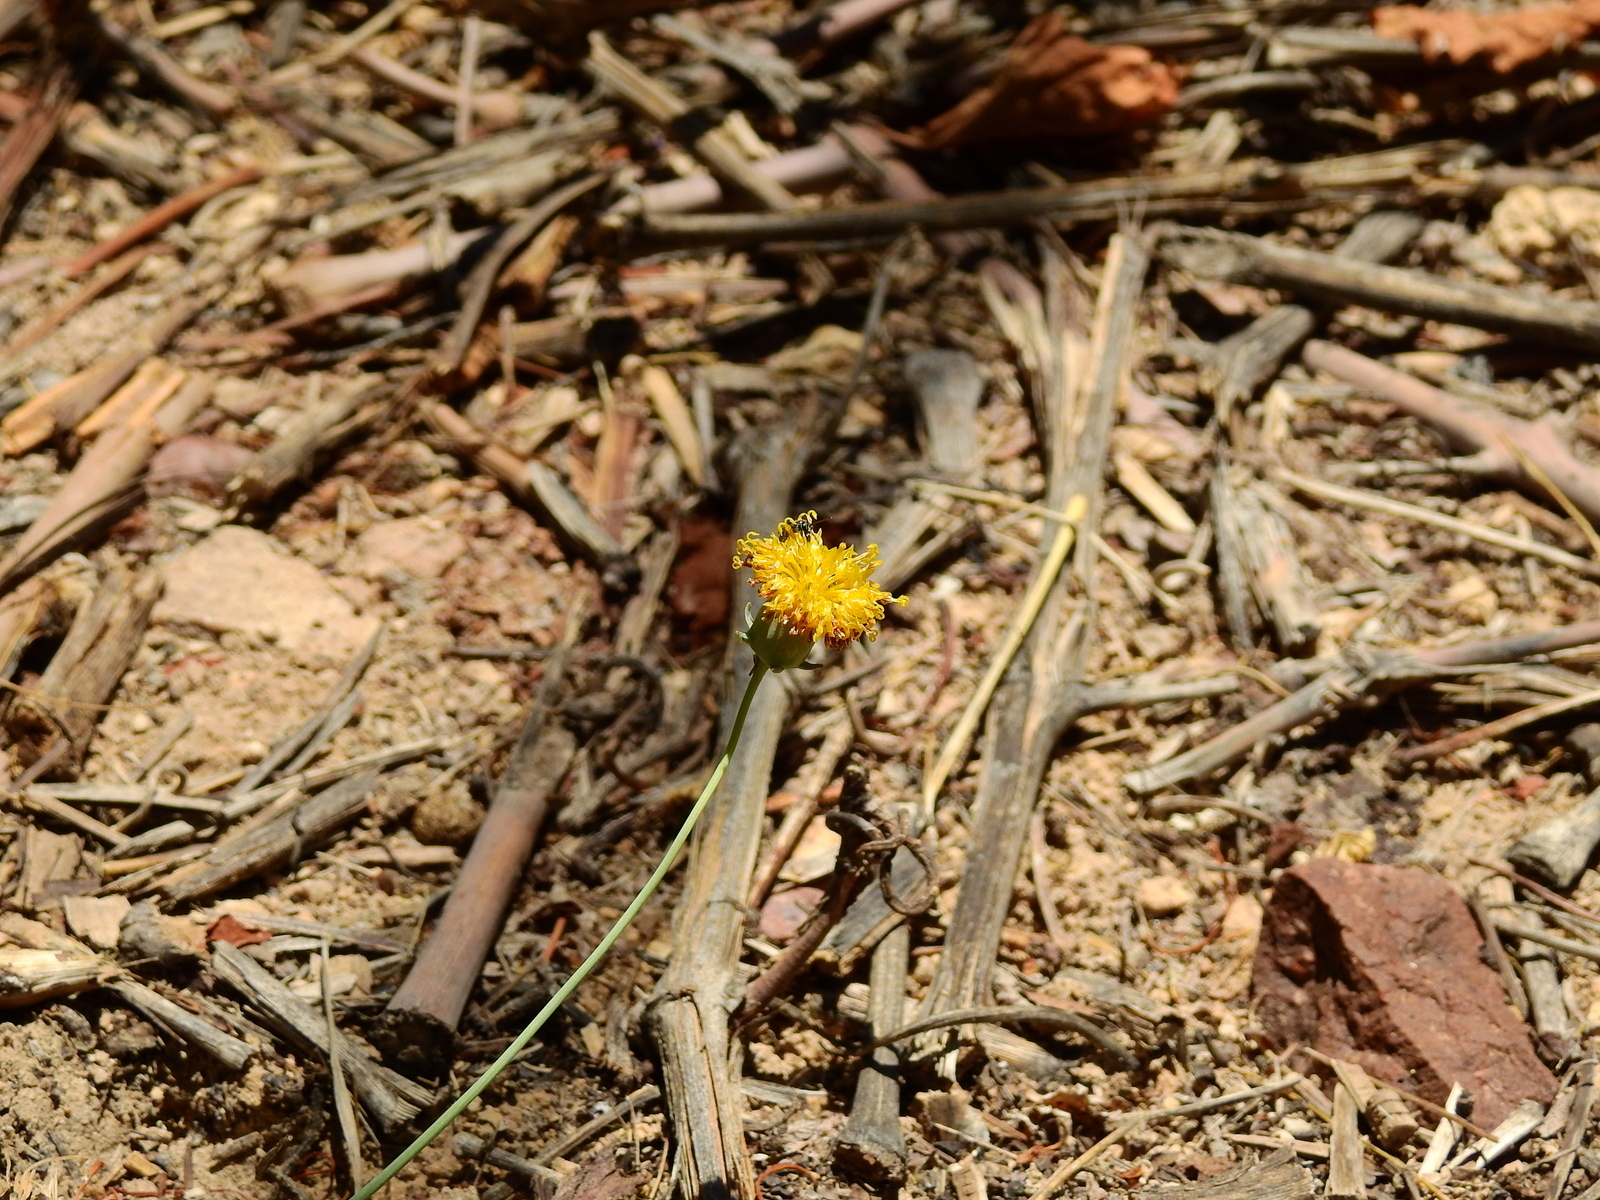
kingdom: Plantae
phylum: Tracheophyta
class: Magnoliopsida
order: Asterales
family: Asteraceae
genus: Thelesperma
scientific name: Thelesperma megapotamicum
